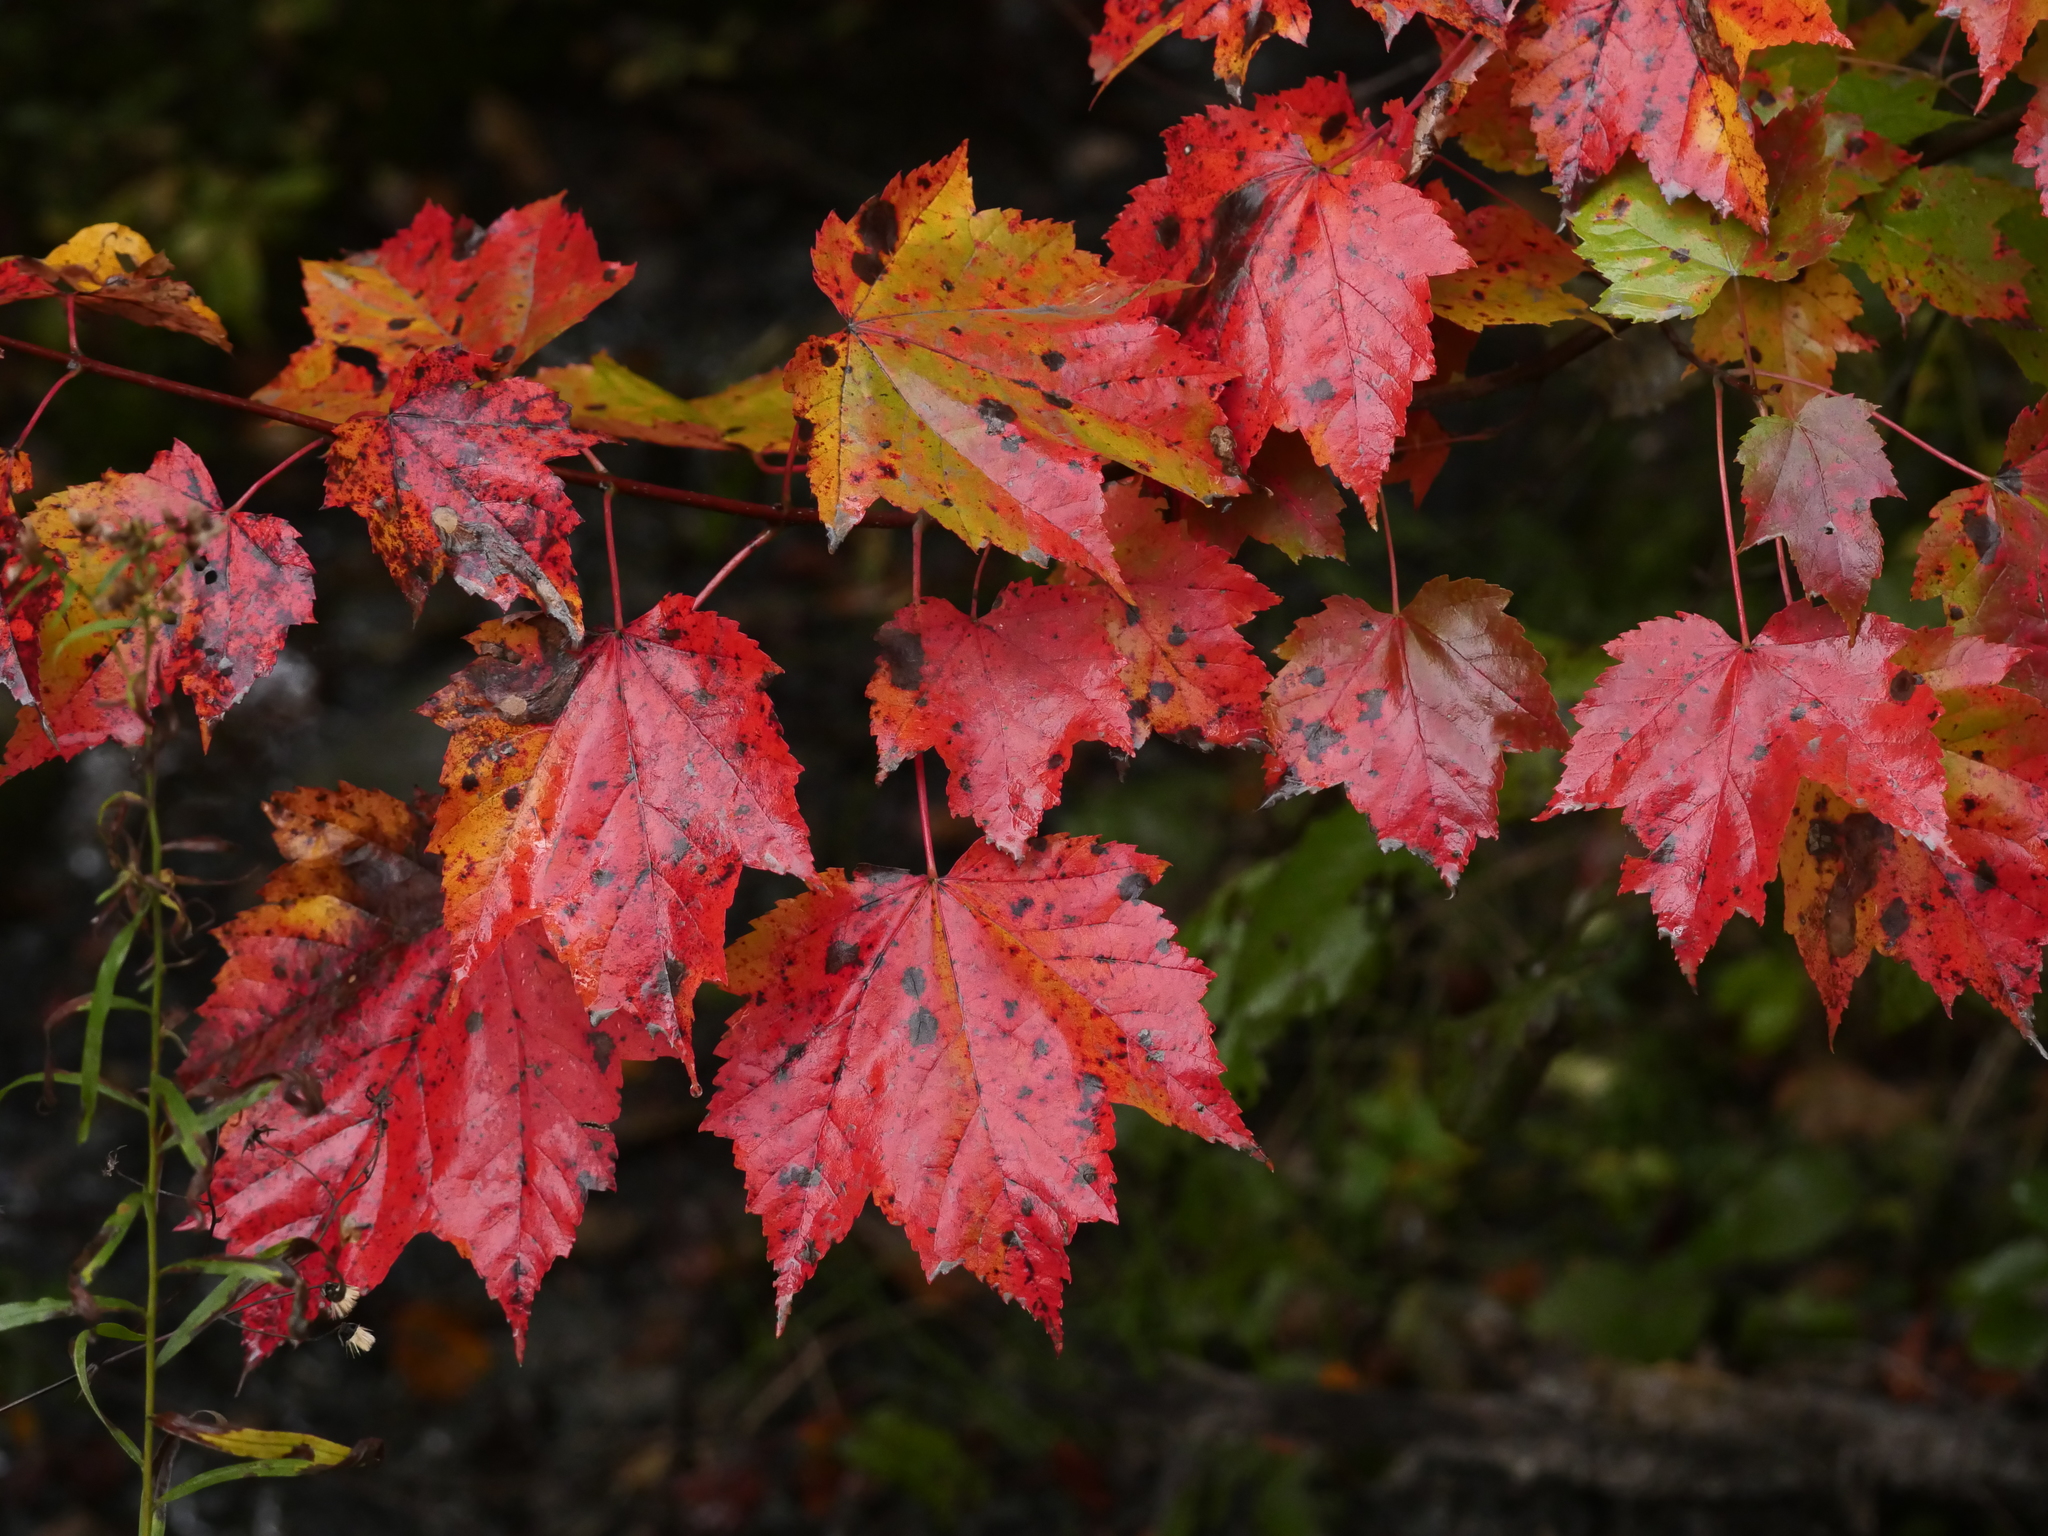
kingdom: Plantae
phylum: Tracheophyta
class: Magnoliopsida
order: Sapindales
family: Sapindaceae
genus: Acer
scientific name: Acer rubrum
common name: Red maple
